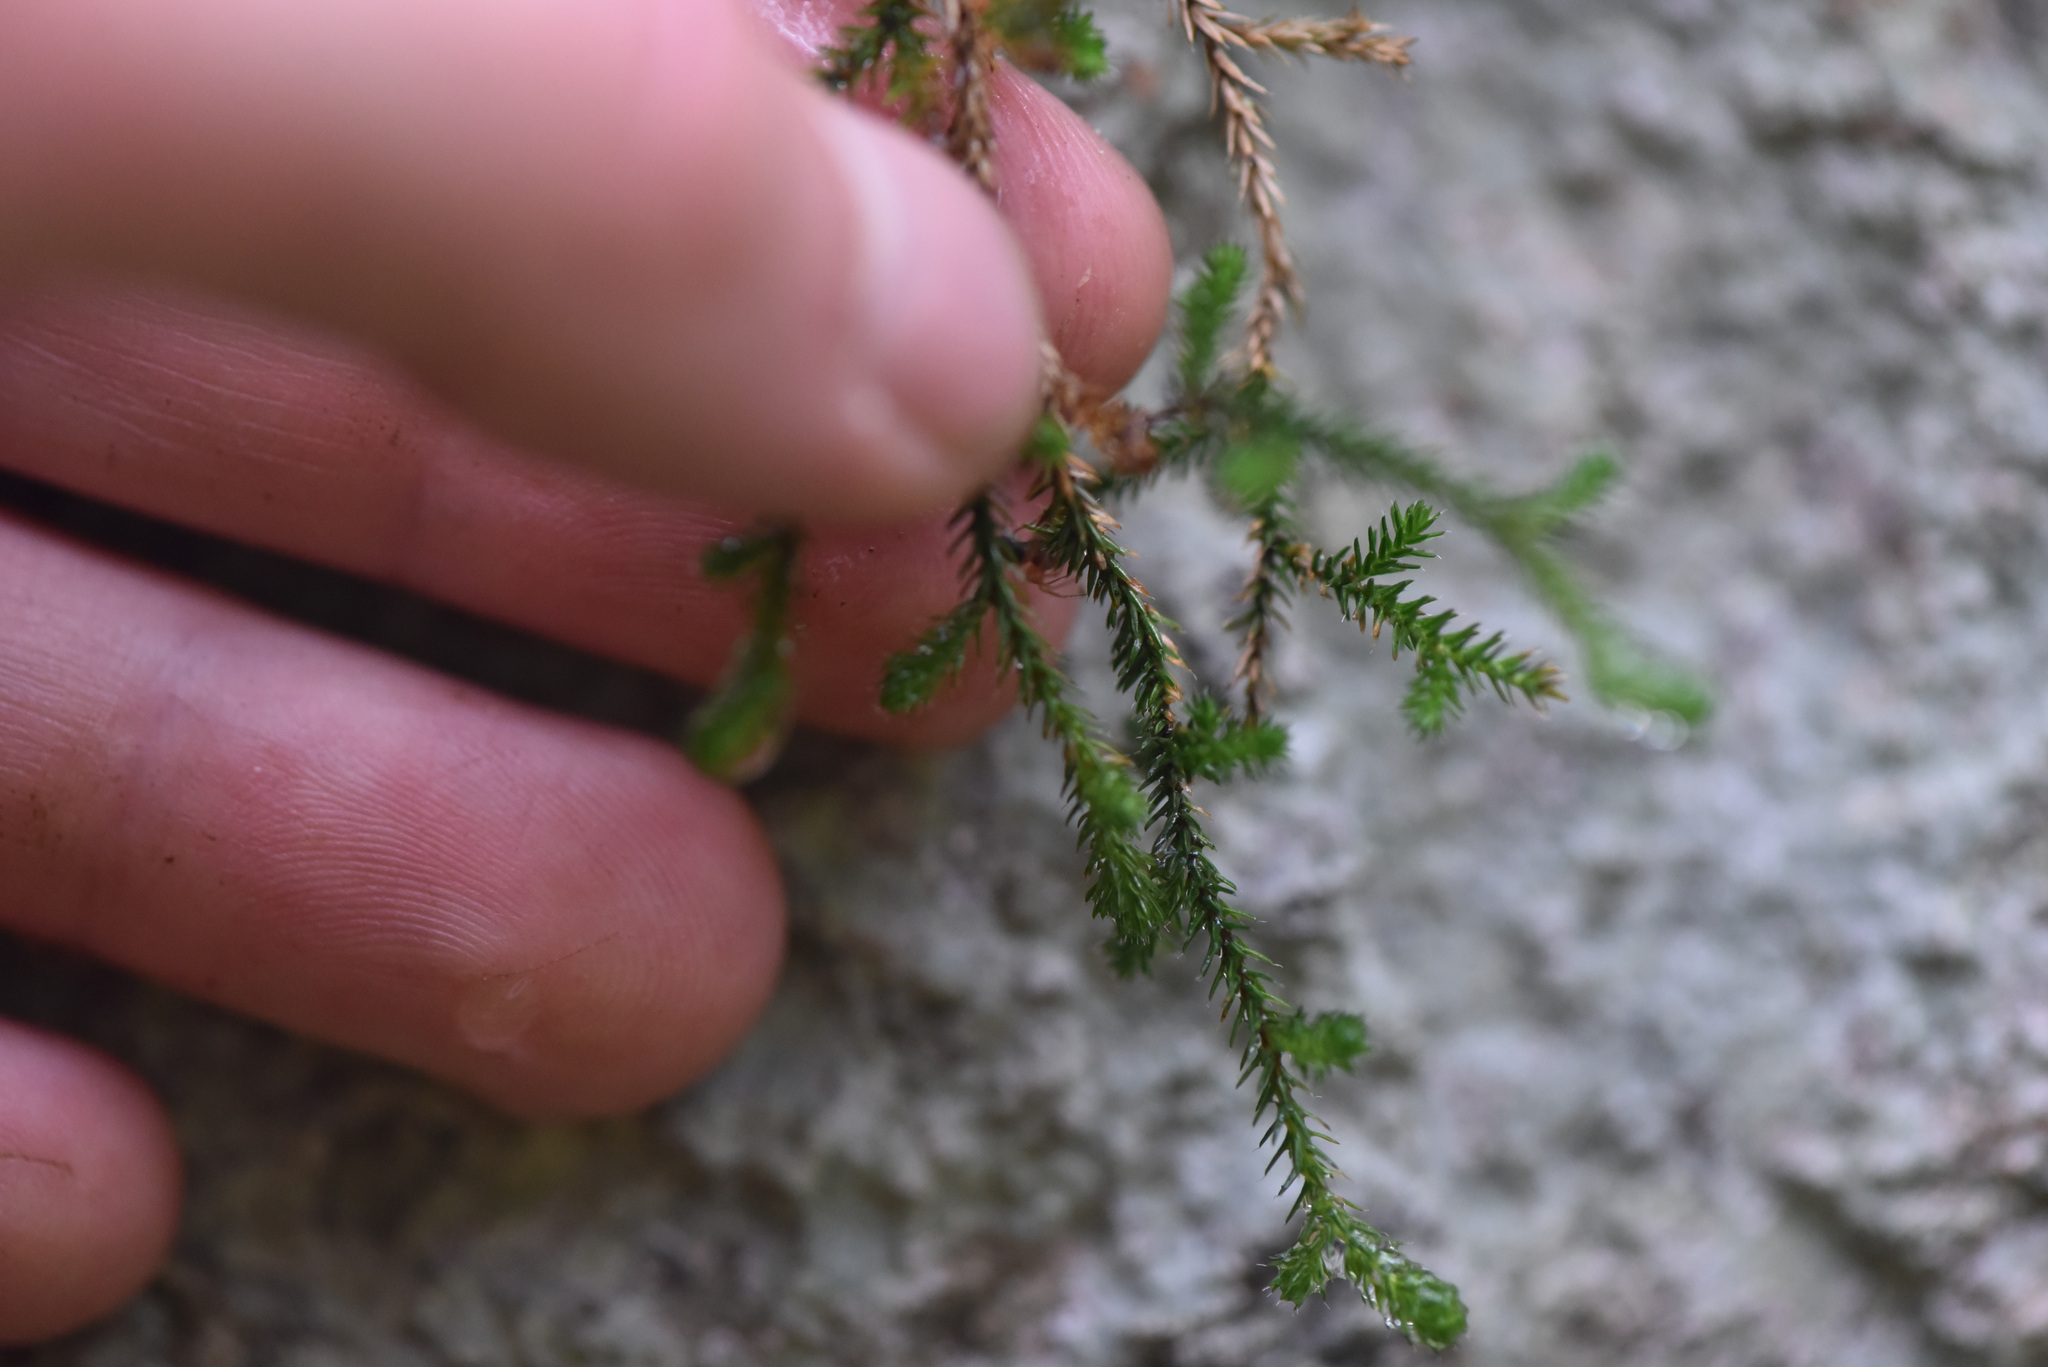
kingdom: Plantae
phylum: Tracheophyta
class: Lycopodiopsida
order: Selaginellales
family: Selaginellaceae
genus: Selaginella
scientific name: Selaginella wallacei
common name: Wallace's selaginella
